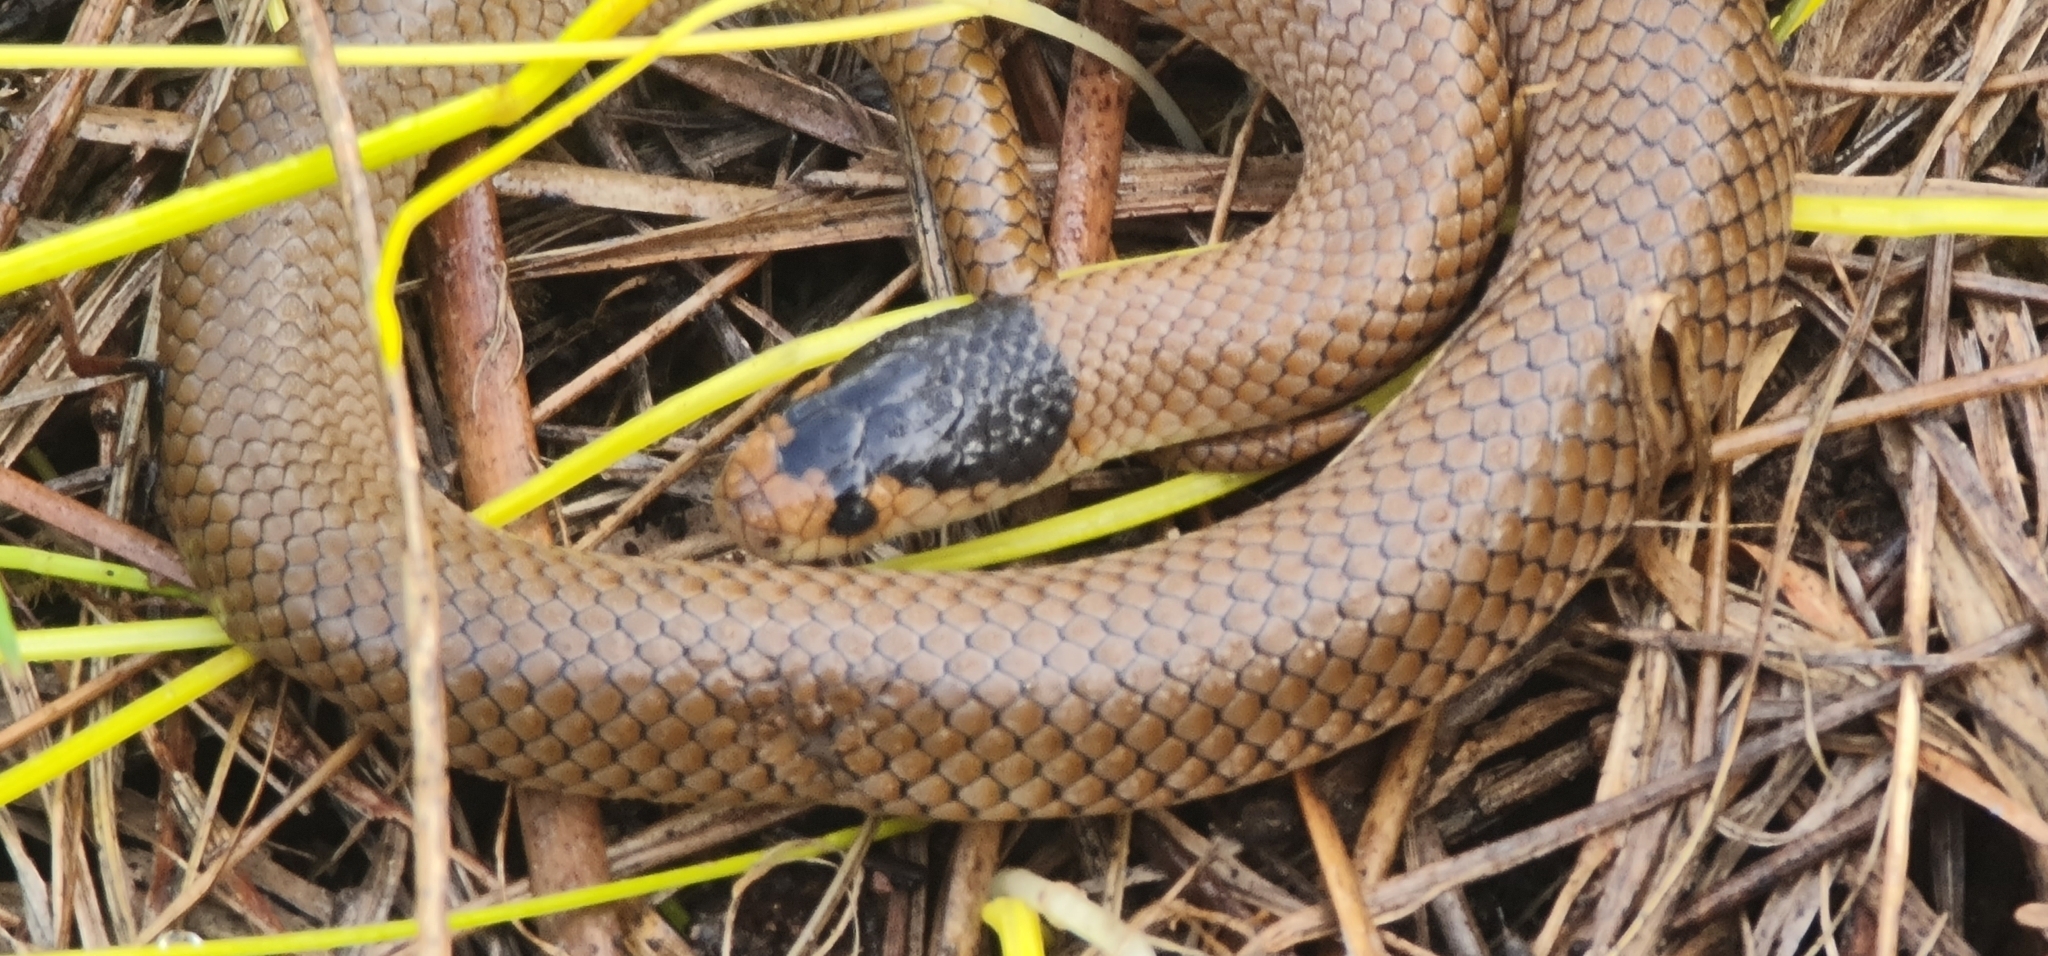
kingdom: Animalia
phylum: Chordata
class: Squamata
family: Elapidae
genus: Suta
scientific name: Suta flagellum
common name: Little whip snake
